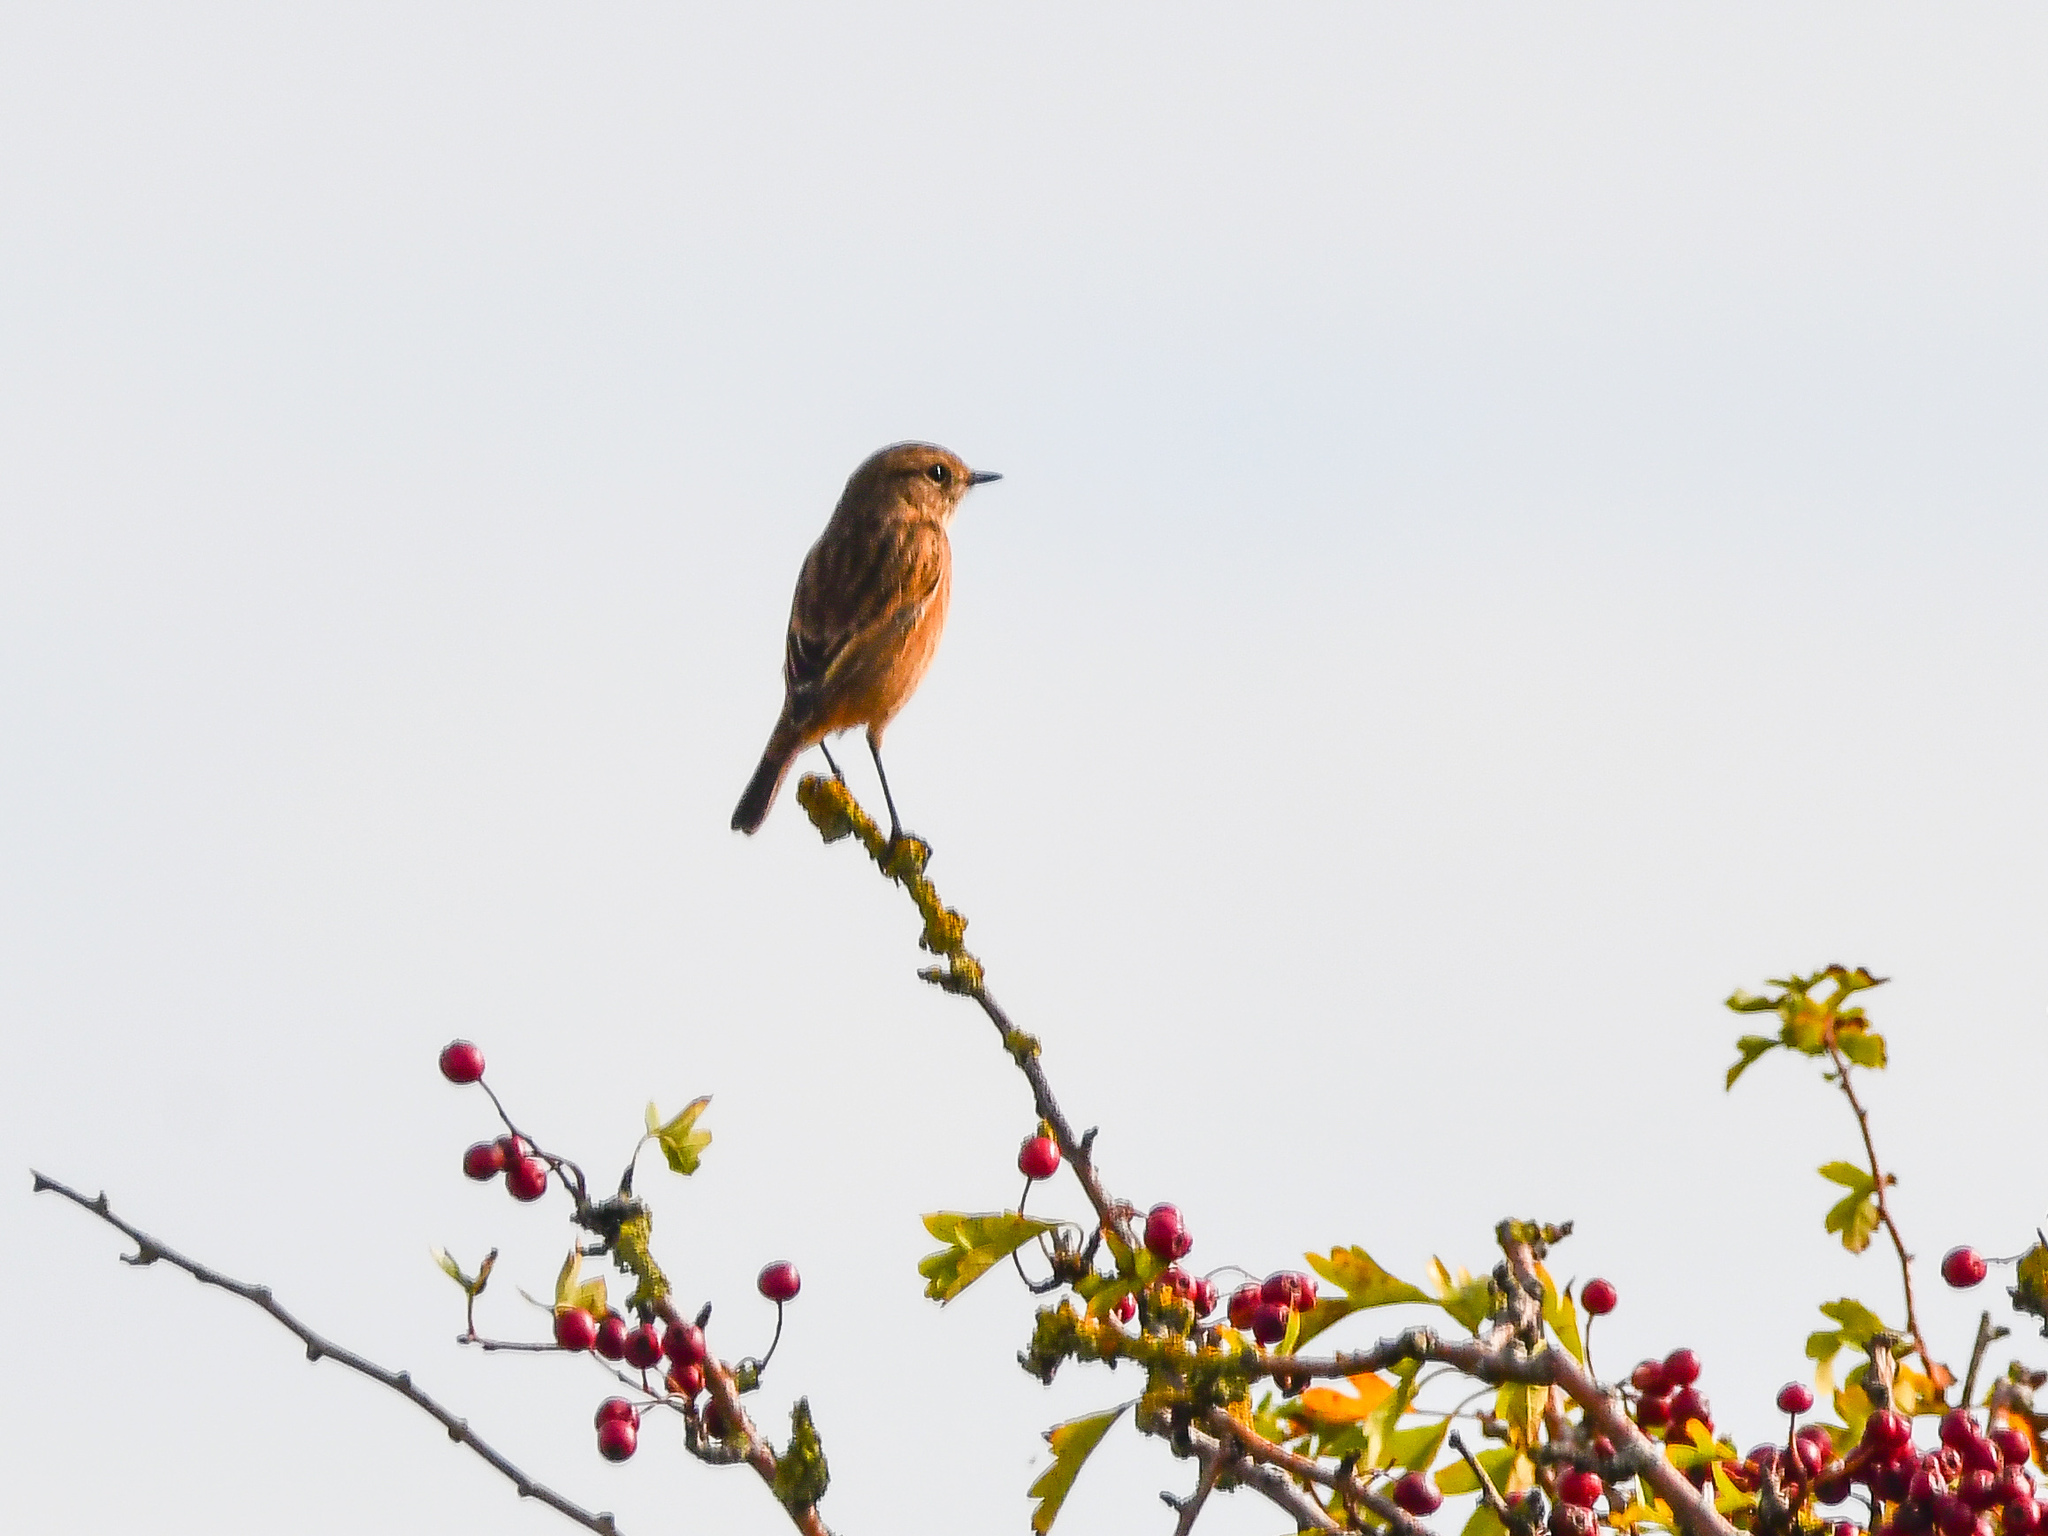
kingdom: Animalia
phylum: Chordata
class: Aves
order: Passeriformes
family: Muscicapidae
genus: Saxicola
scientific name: Saxicola rubicola
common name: European stonechat
